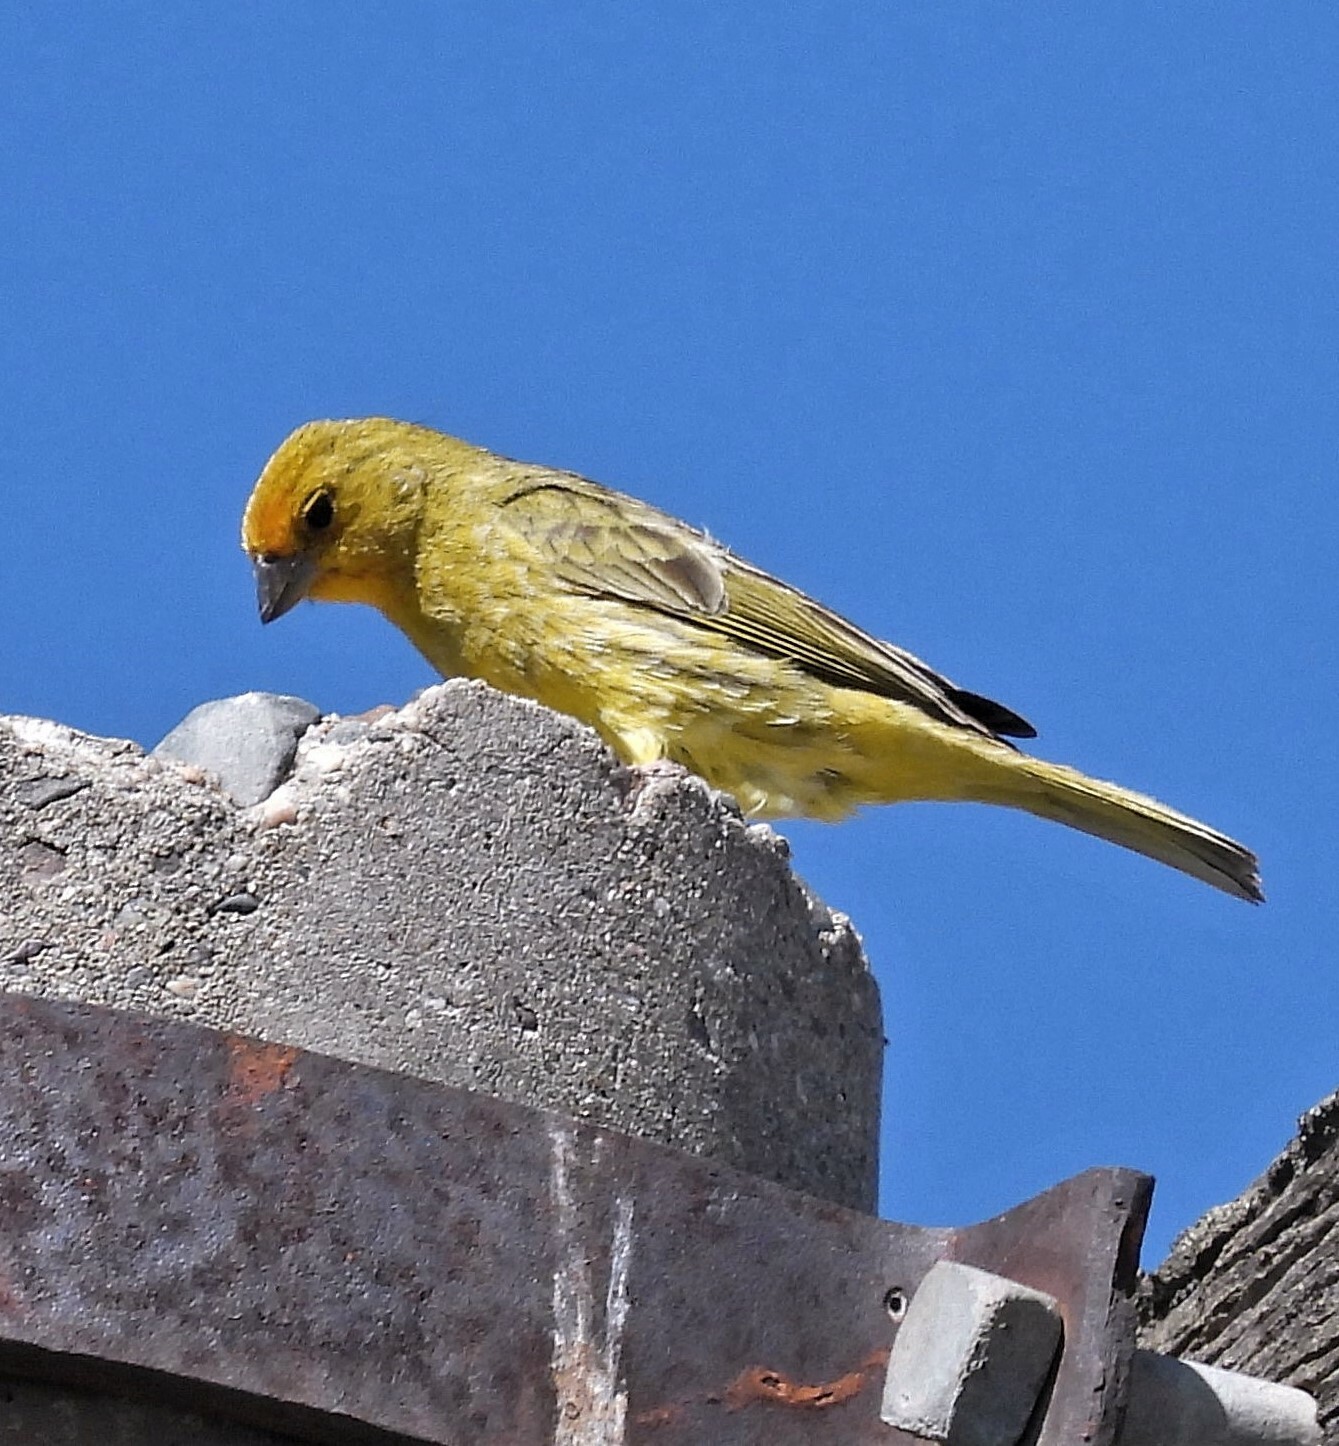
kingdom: Animalia
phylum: Chordata
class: Aves
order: Passeriformes
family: Thraupidae
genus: Sicalis
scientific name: Sicalis flaveola
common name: Saffron finch
